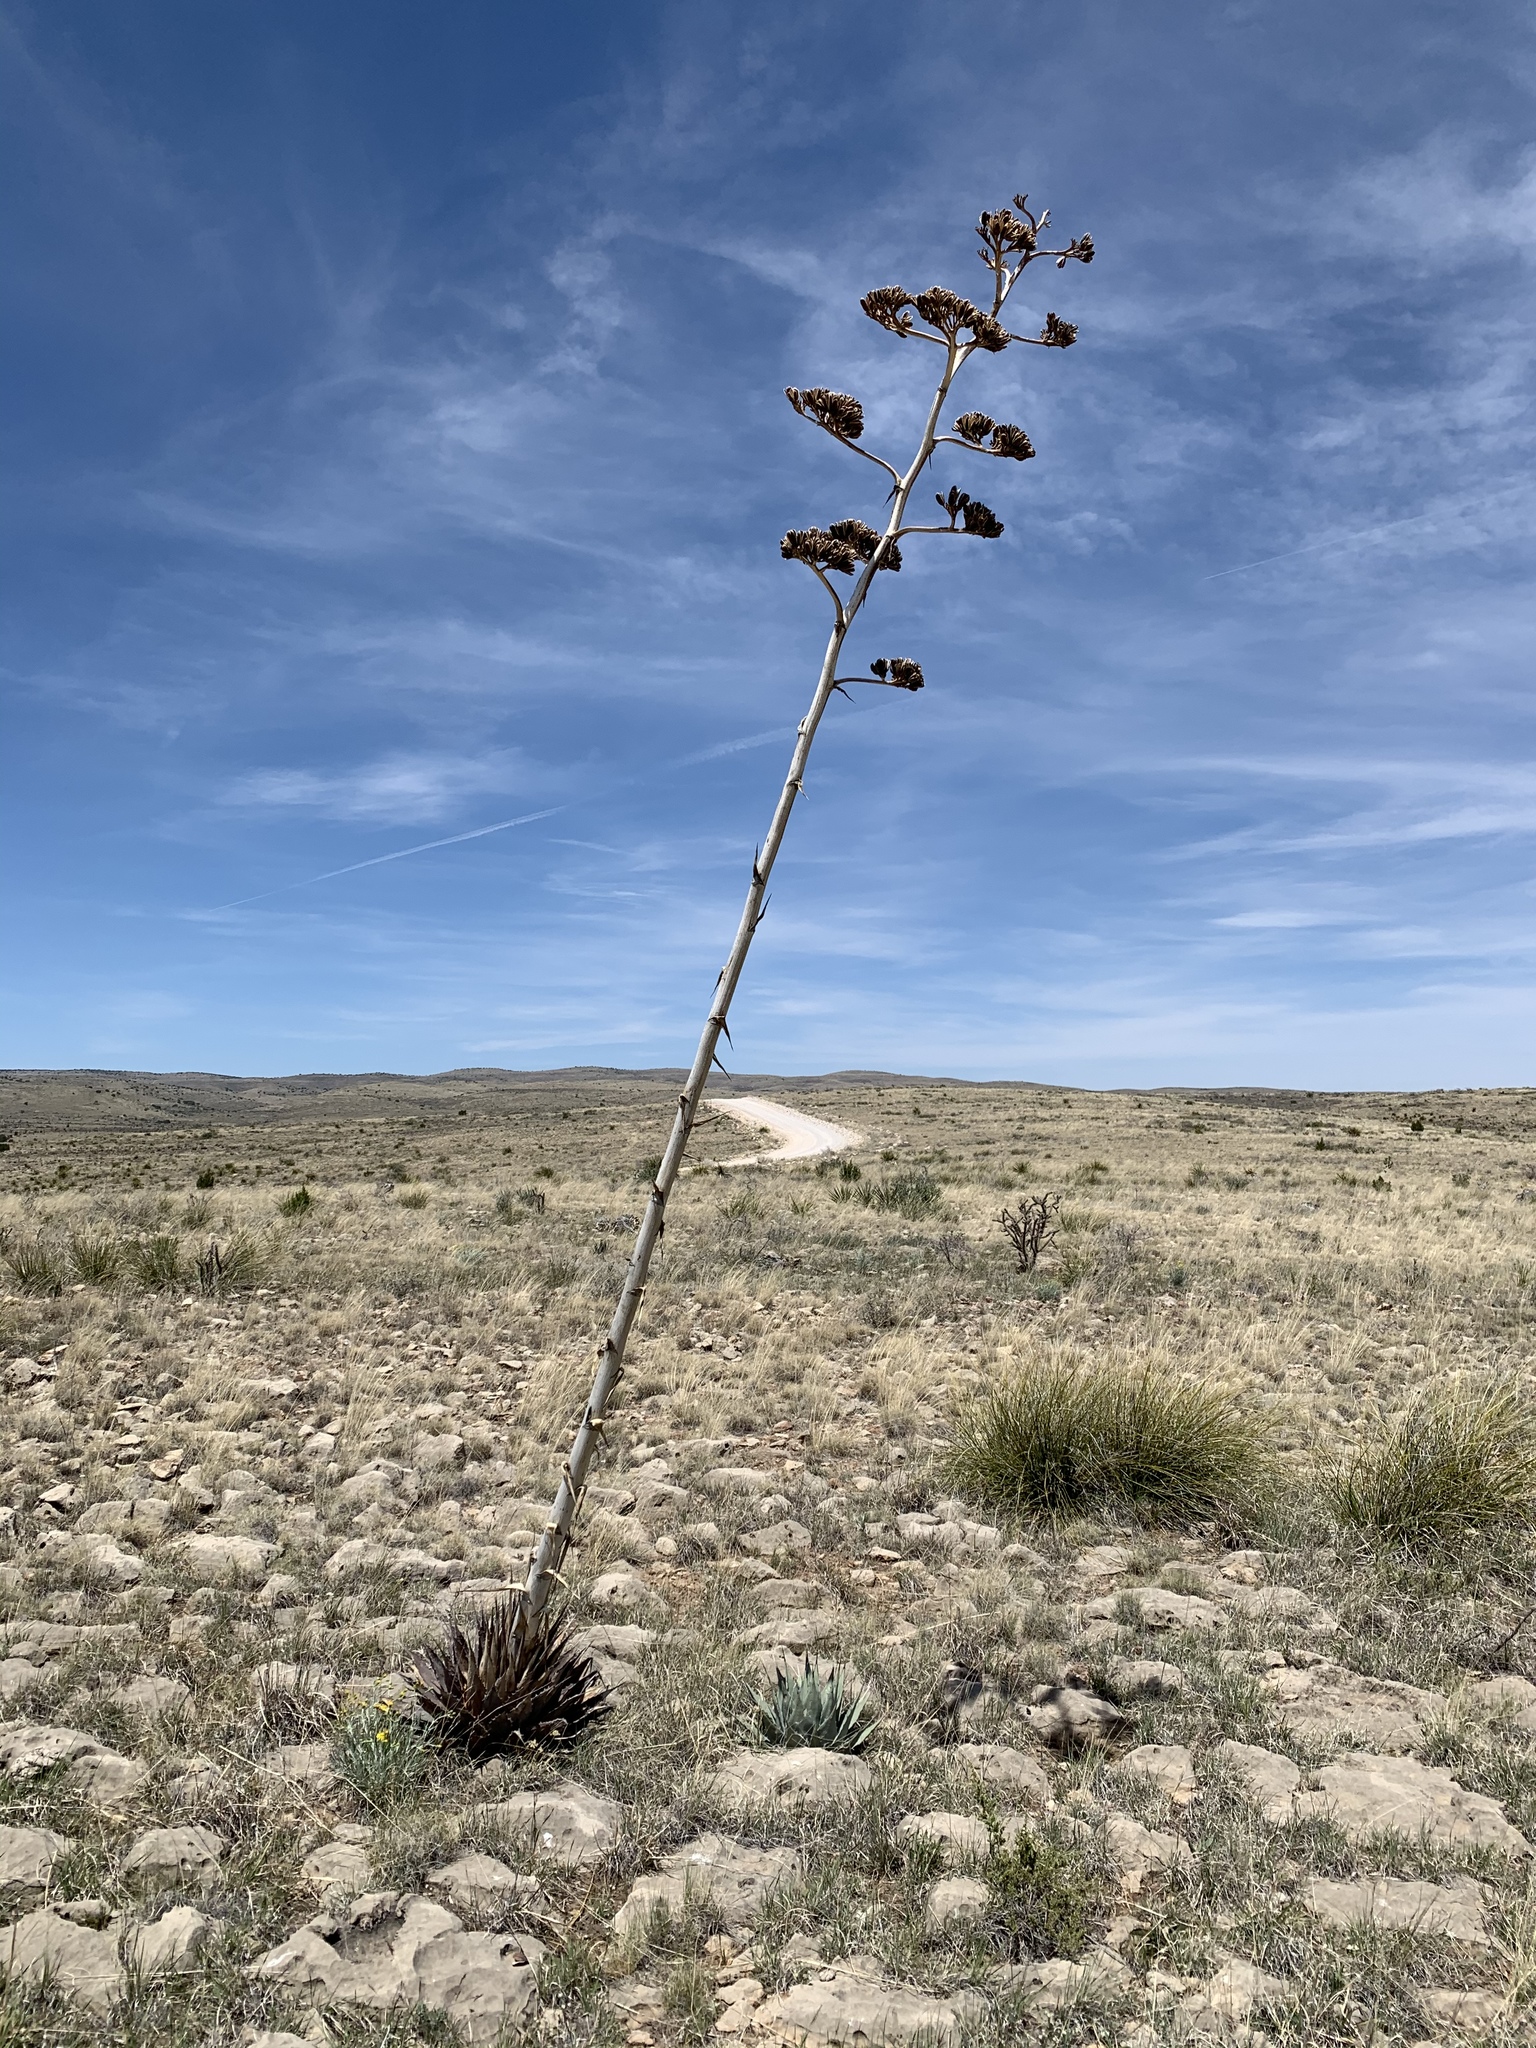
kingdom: Plantae
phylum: Tracheophyta
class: Liliopsida
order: Asparagales
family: Asparagaceae
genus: Agave
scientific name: Agave parryi
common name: Parry's agave
